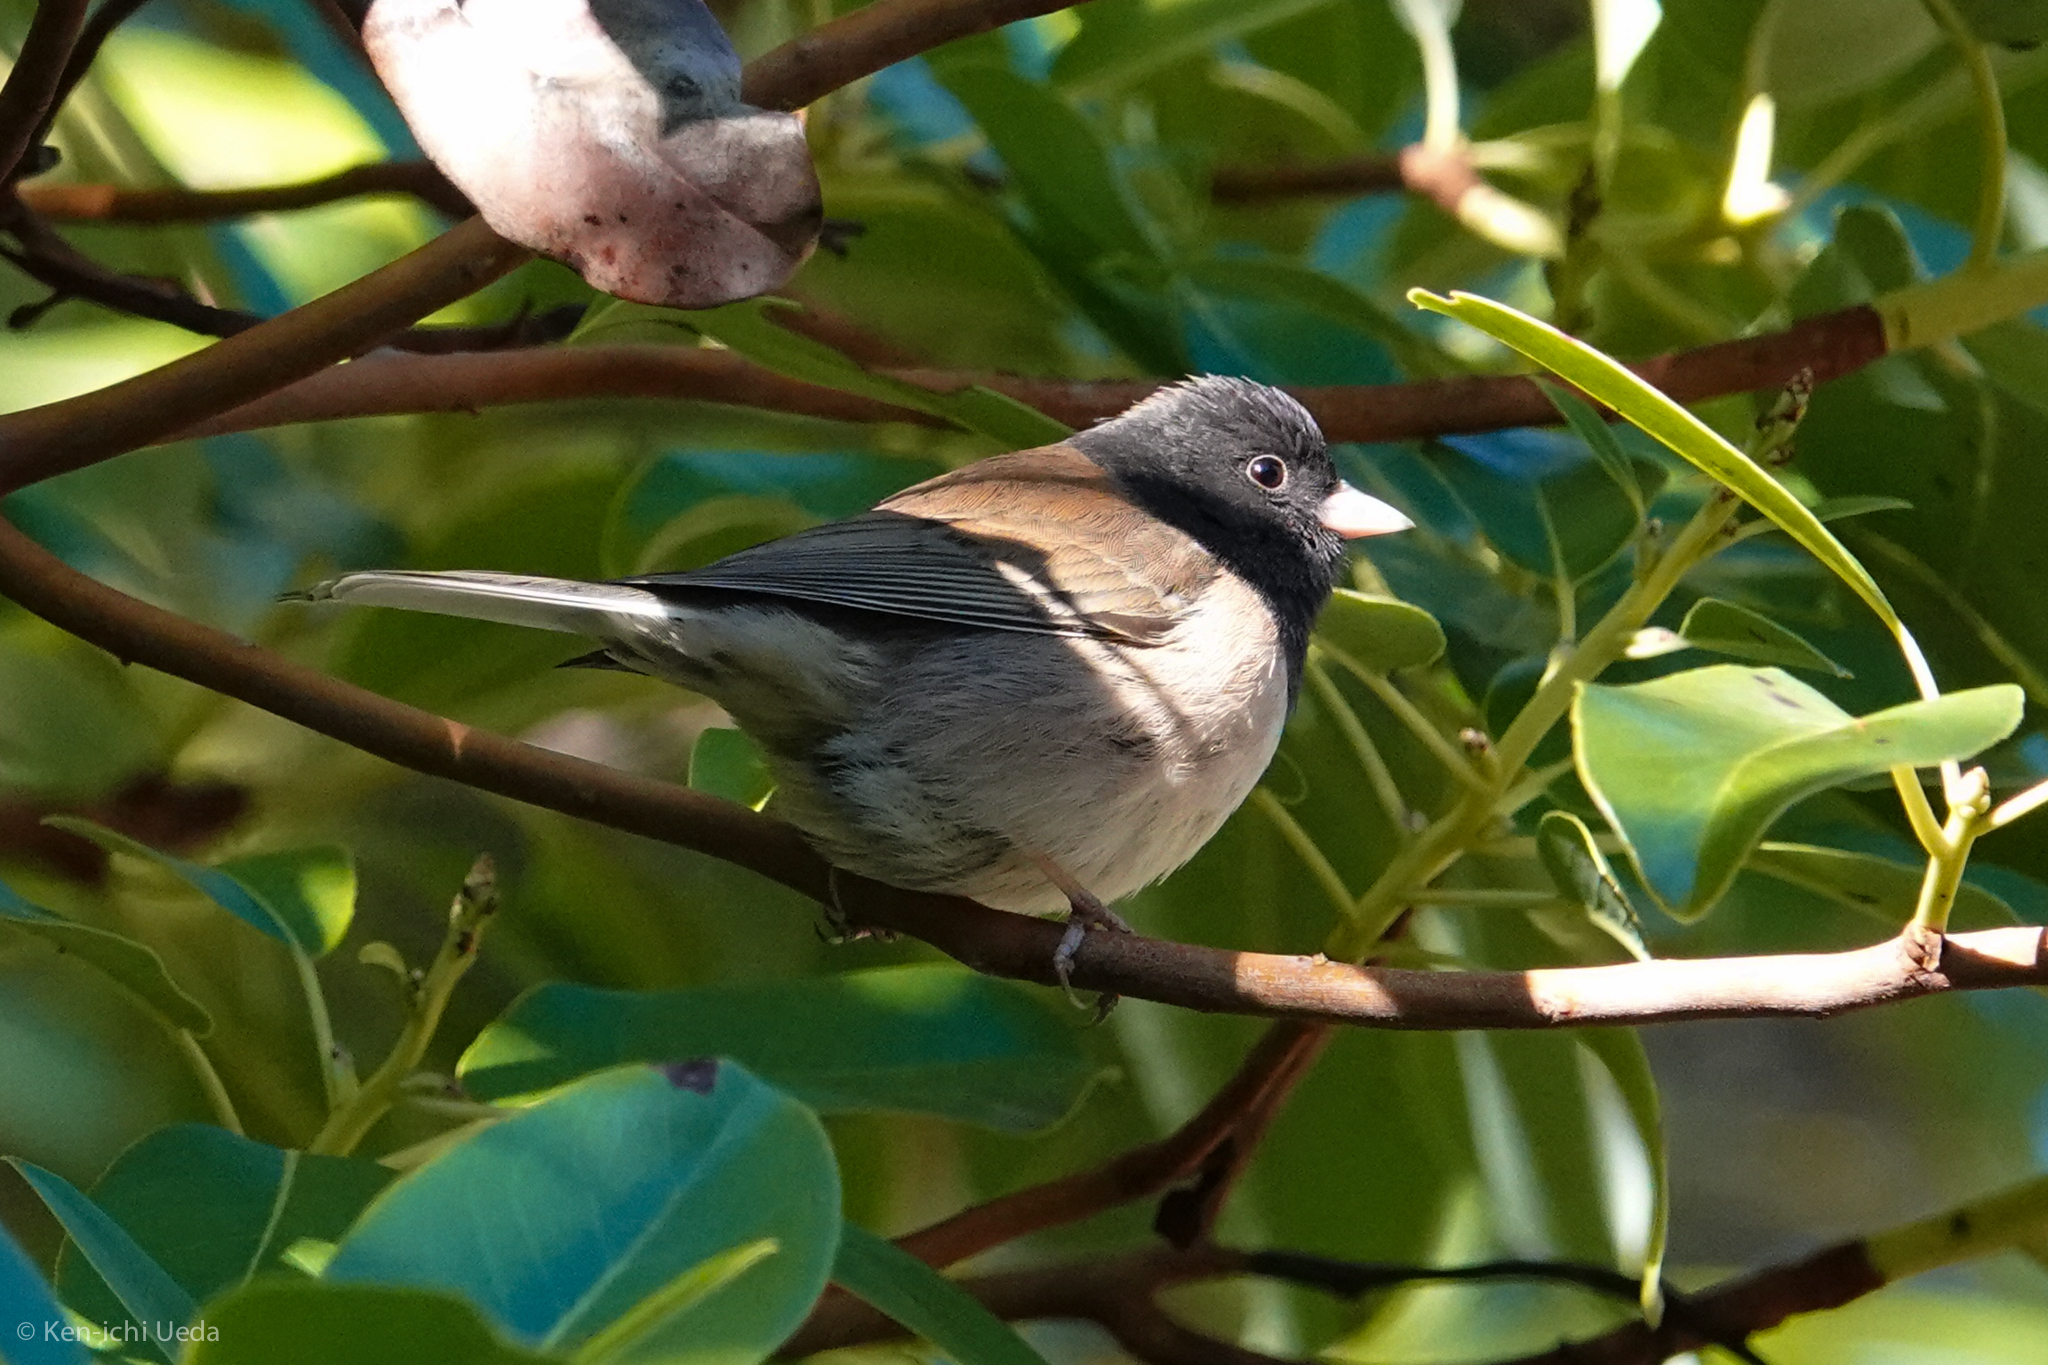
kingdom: Animalia
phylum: Chordata
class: Aves
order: Passeriformes
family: Passerellidae
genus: Junco
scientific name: Junco hyemalis
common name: Dark-eyed junco
